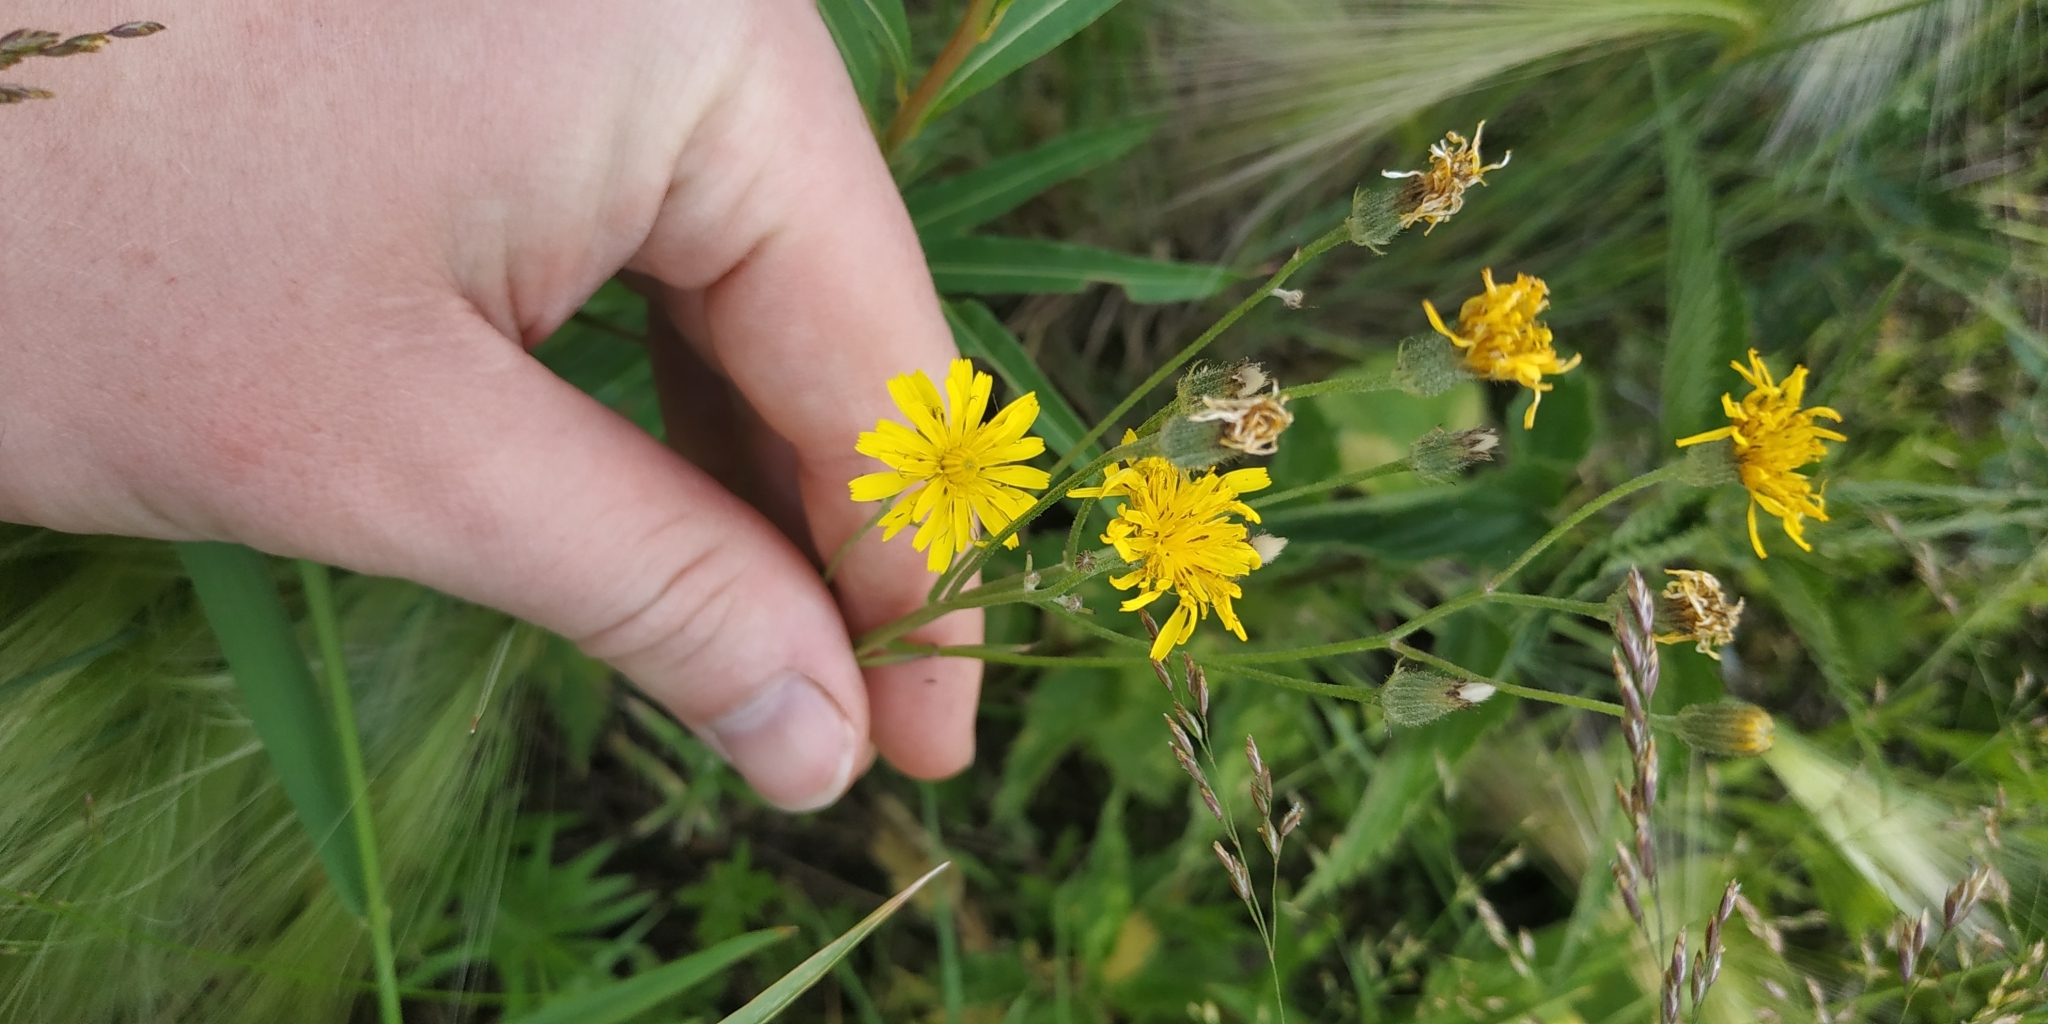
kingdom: Plantae
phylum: Tracheophyta
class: Magnoliopsida
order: Asterales
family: Asteraceae
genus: Crepis
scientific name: Crepis tectorum
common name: Narrow-leaved hawk's-beard
